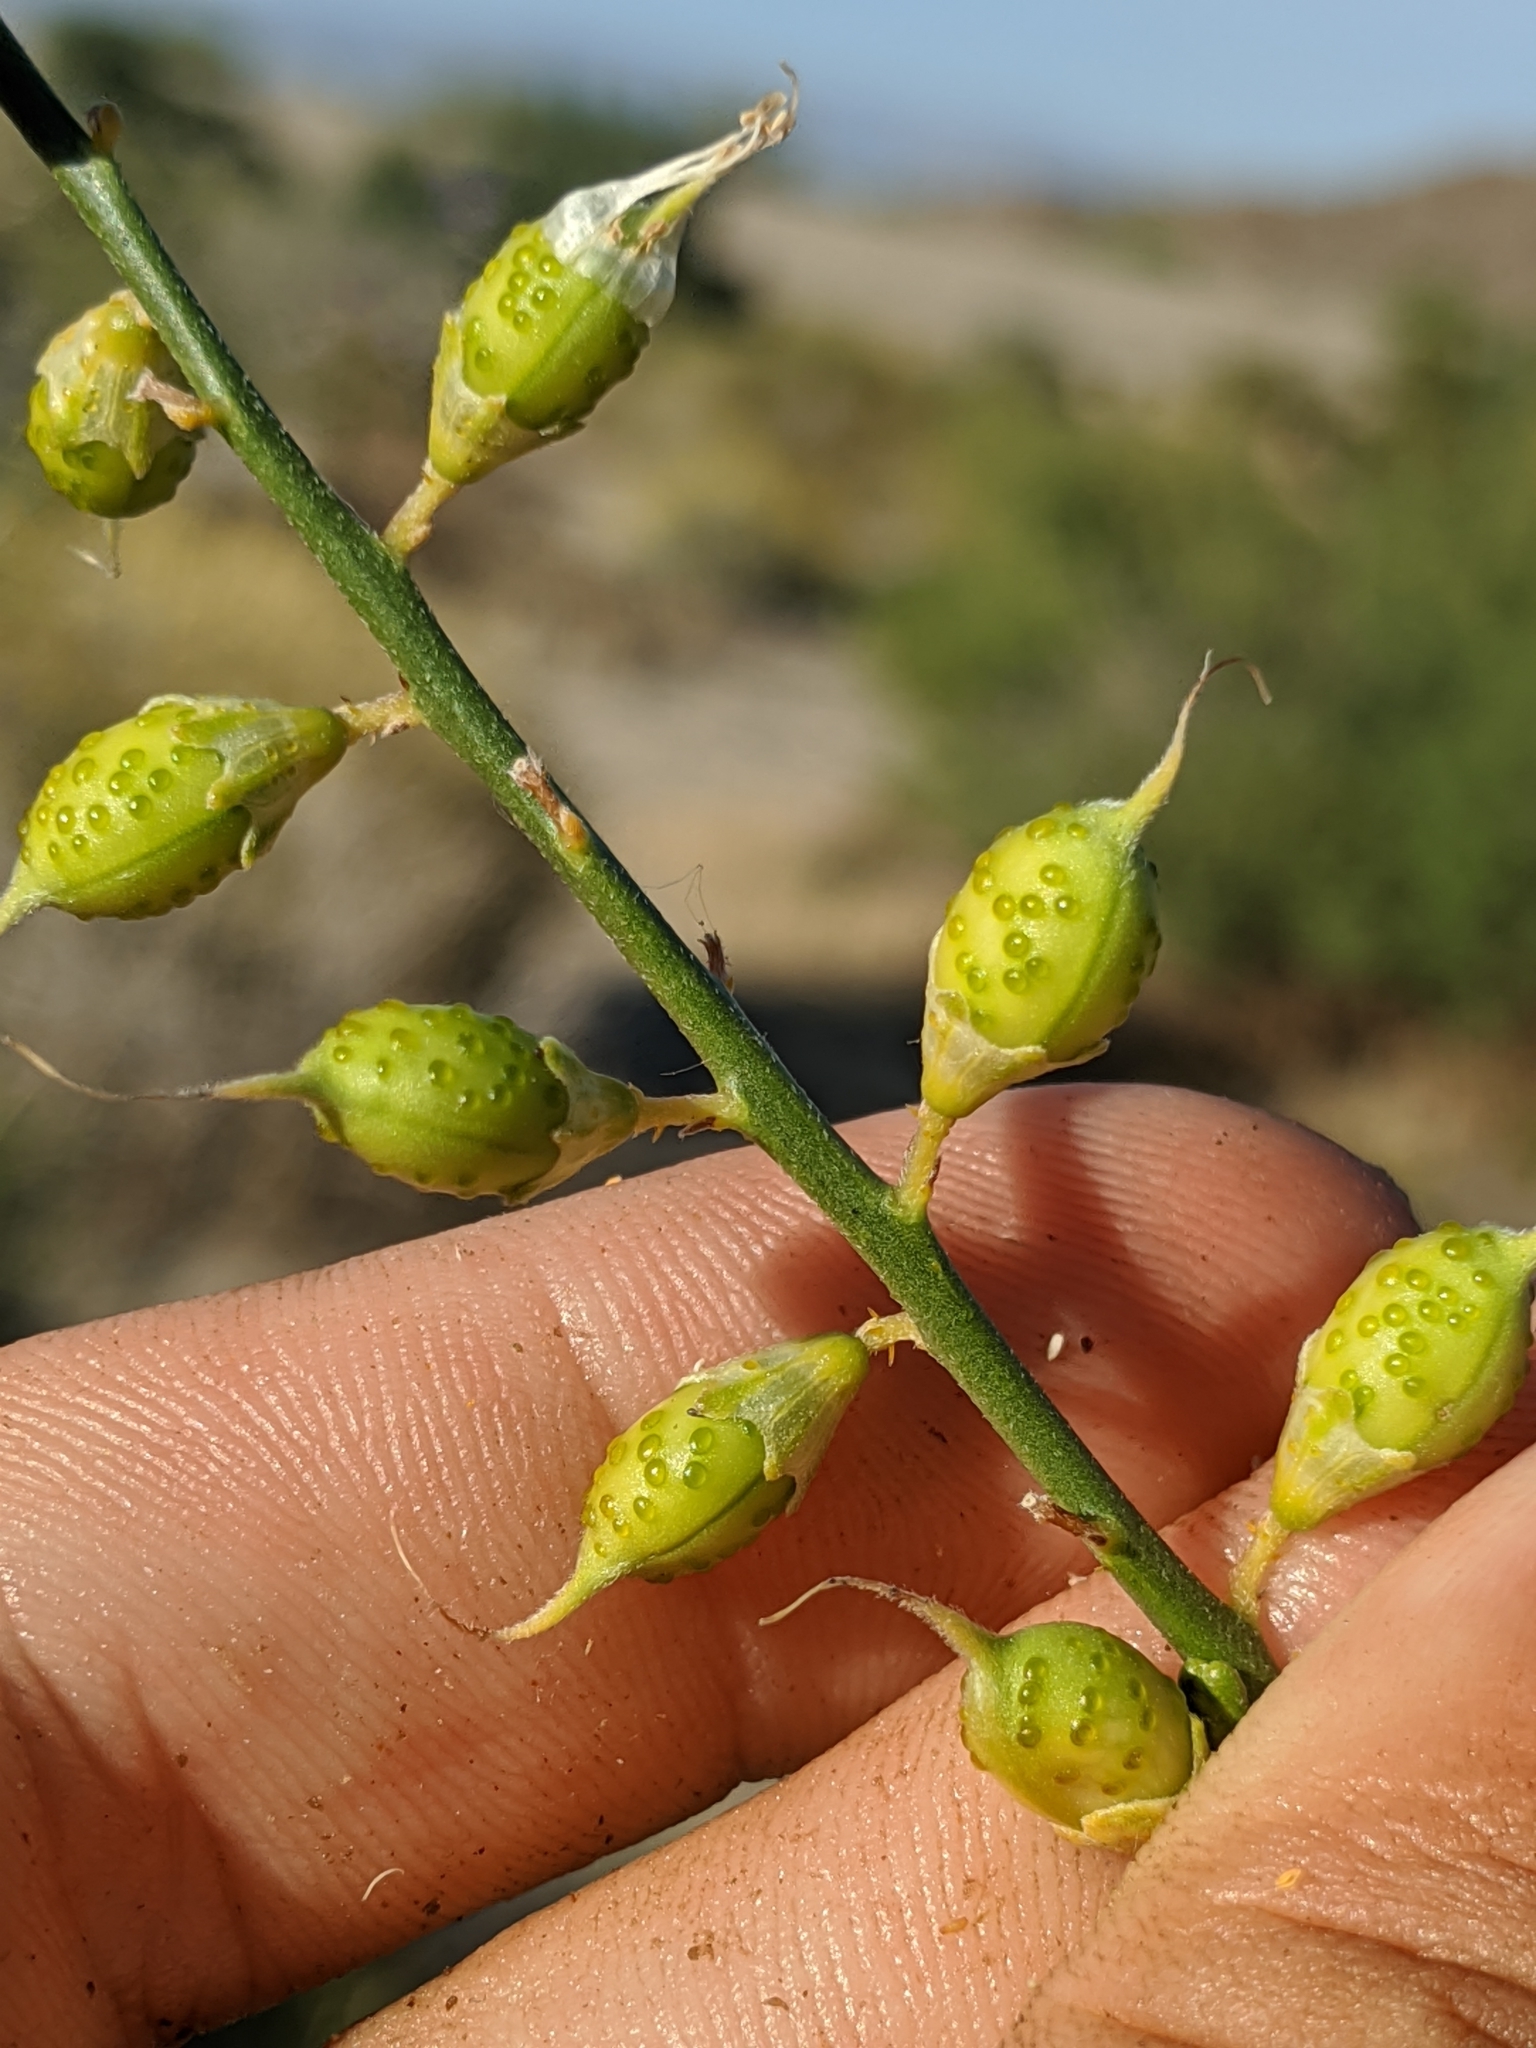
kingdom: Plantae
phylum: Tracheophyta
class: Magnoliopsida
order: Fabales
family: Fabaceae
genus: Psorothamnus
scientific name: Psorothamnus schottii
